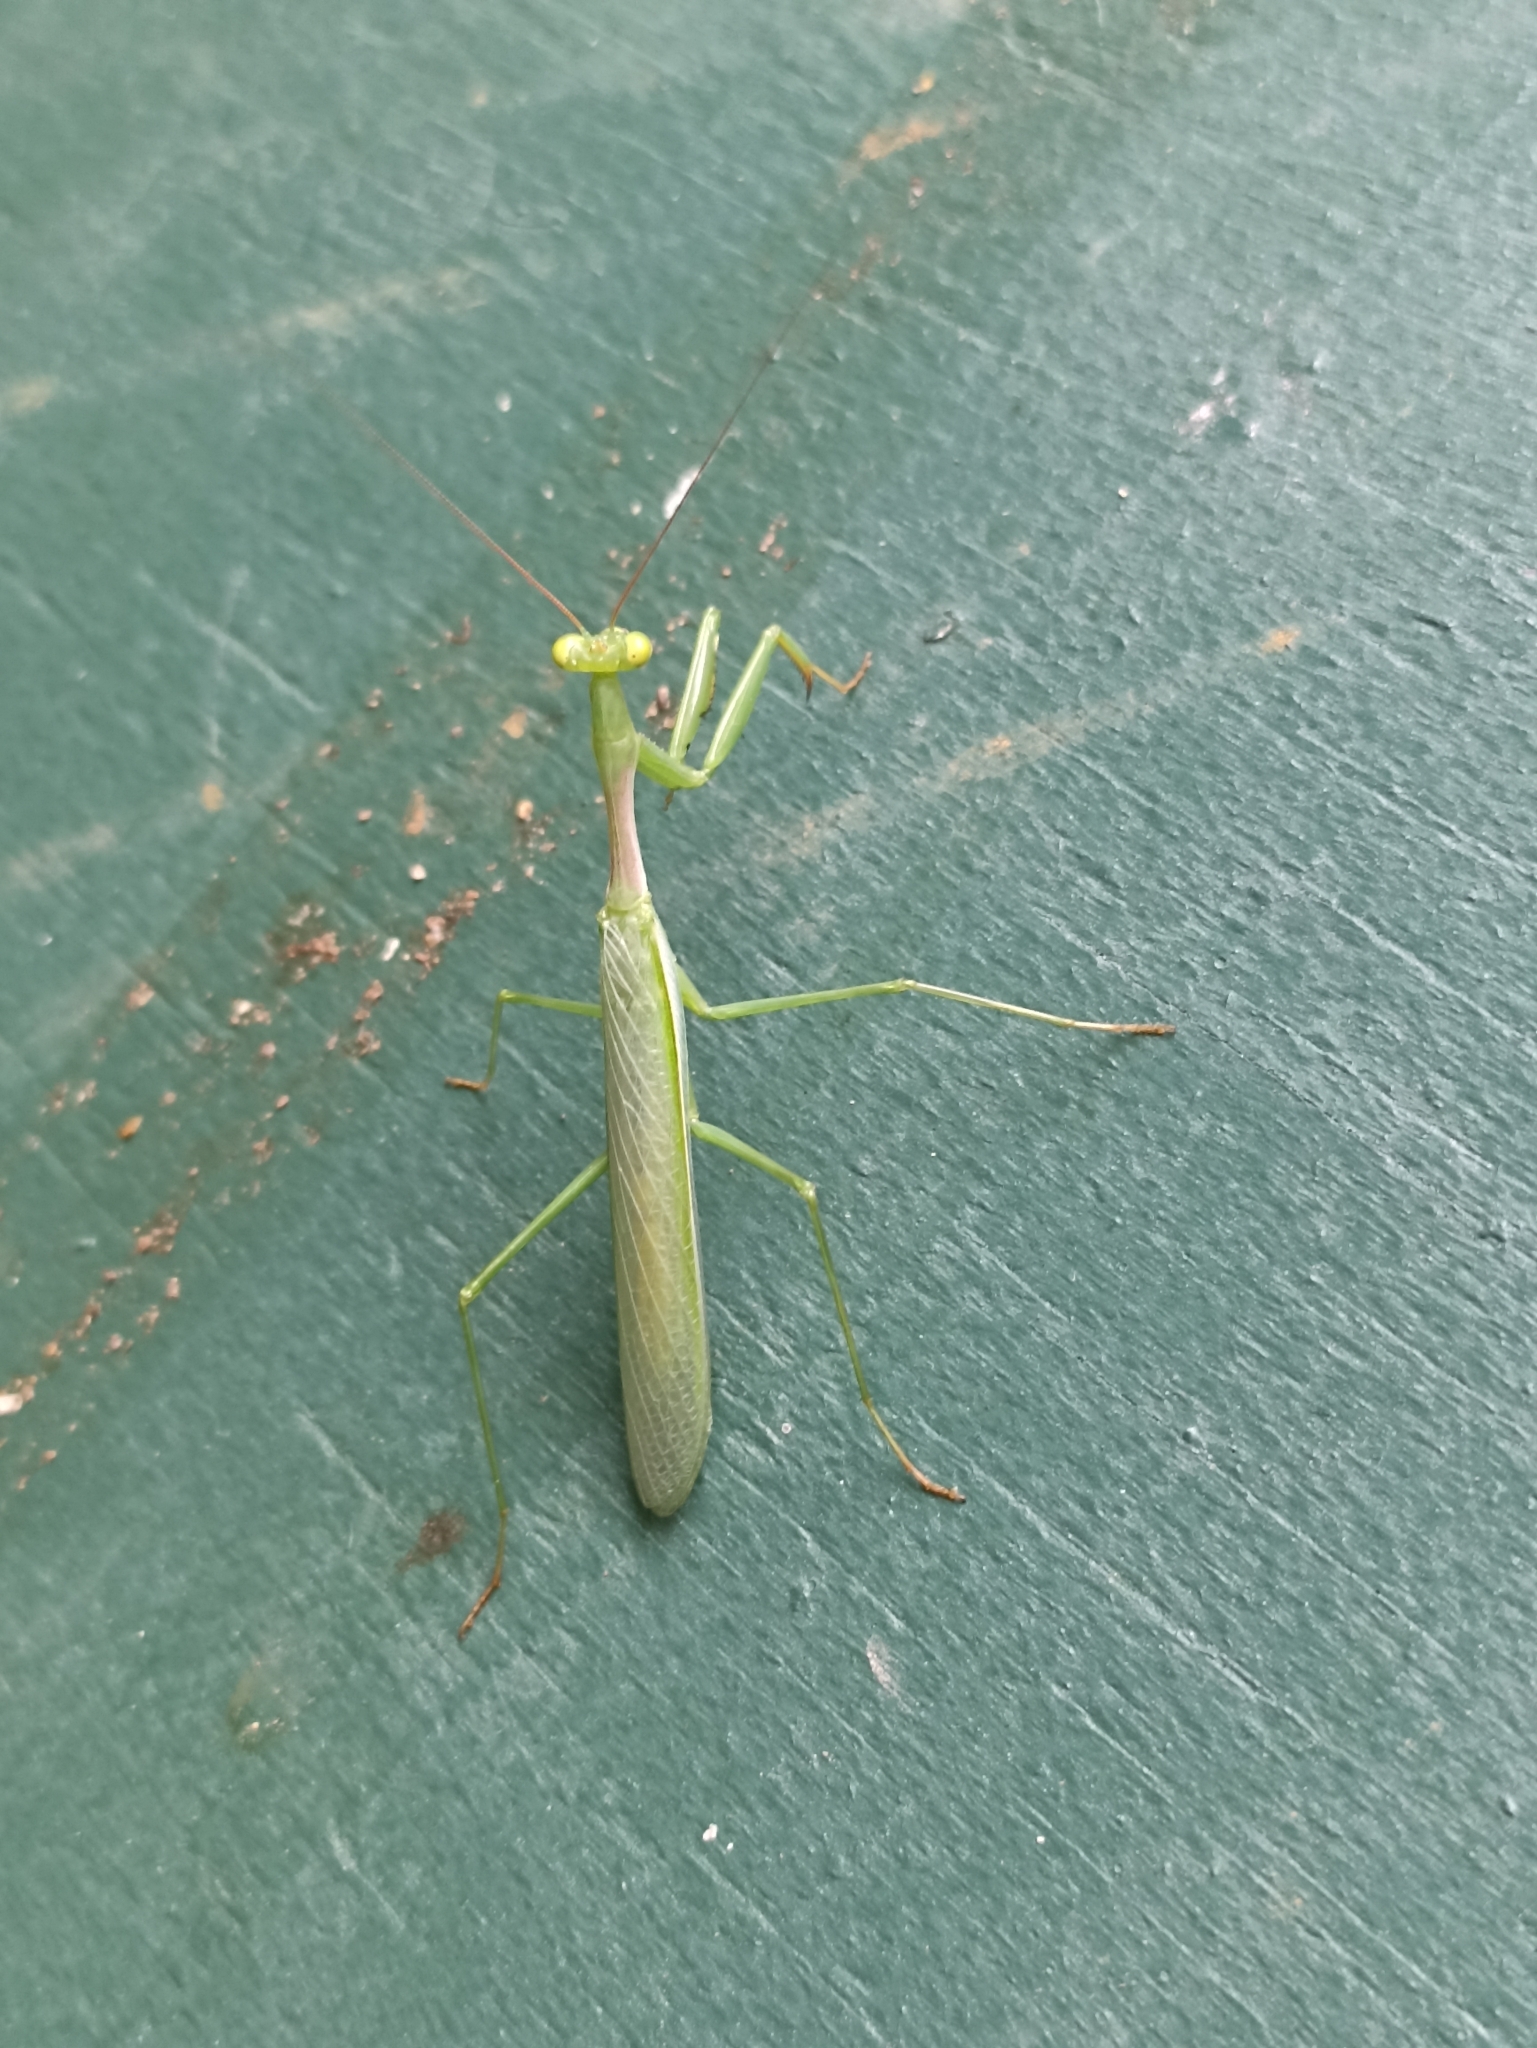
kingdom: Animalia
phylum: Arthropoda
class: Insecta
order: Mantodea
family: Miomantidae
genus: Miomantis
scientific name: Miomantis caffra
